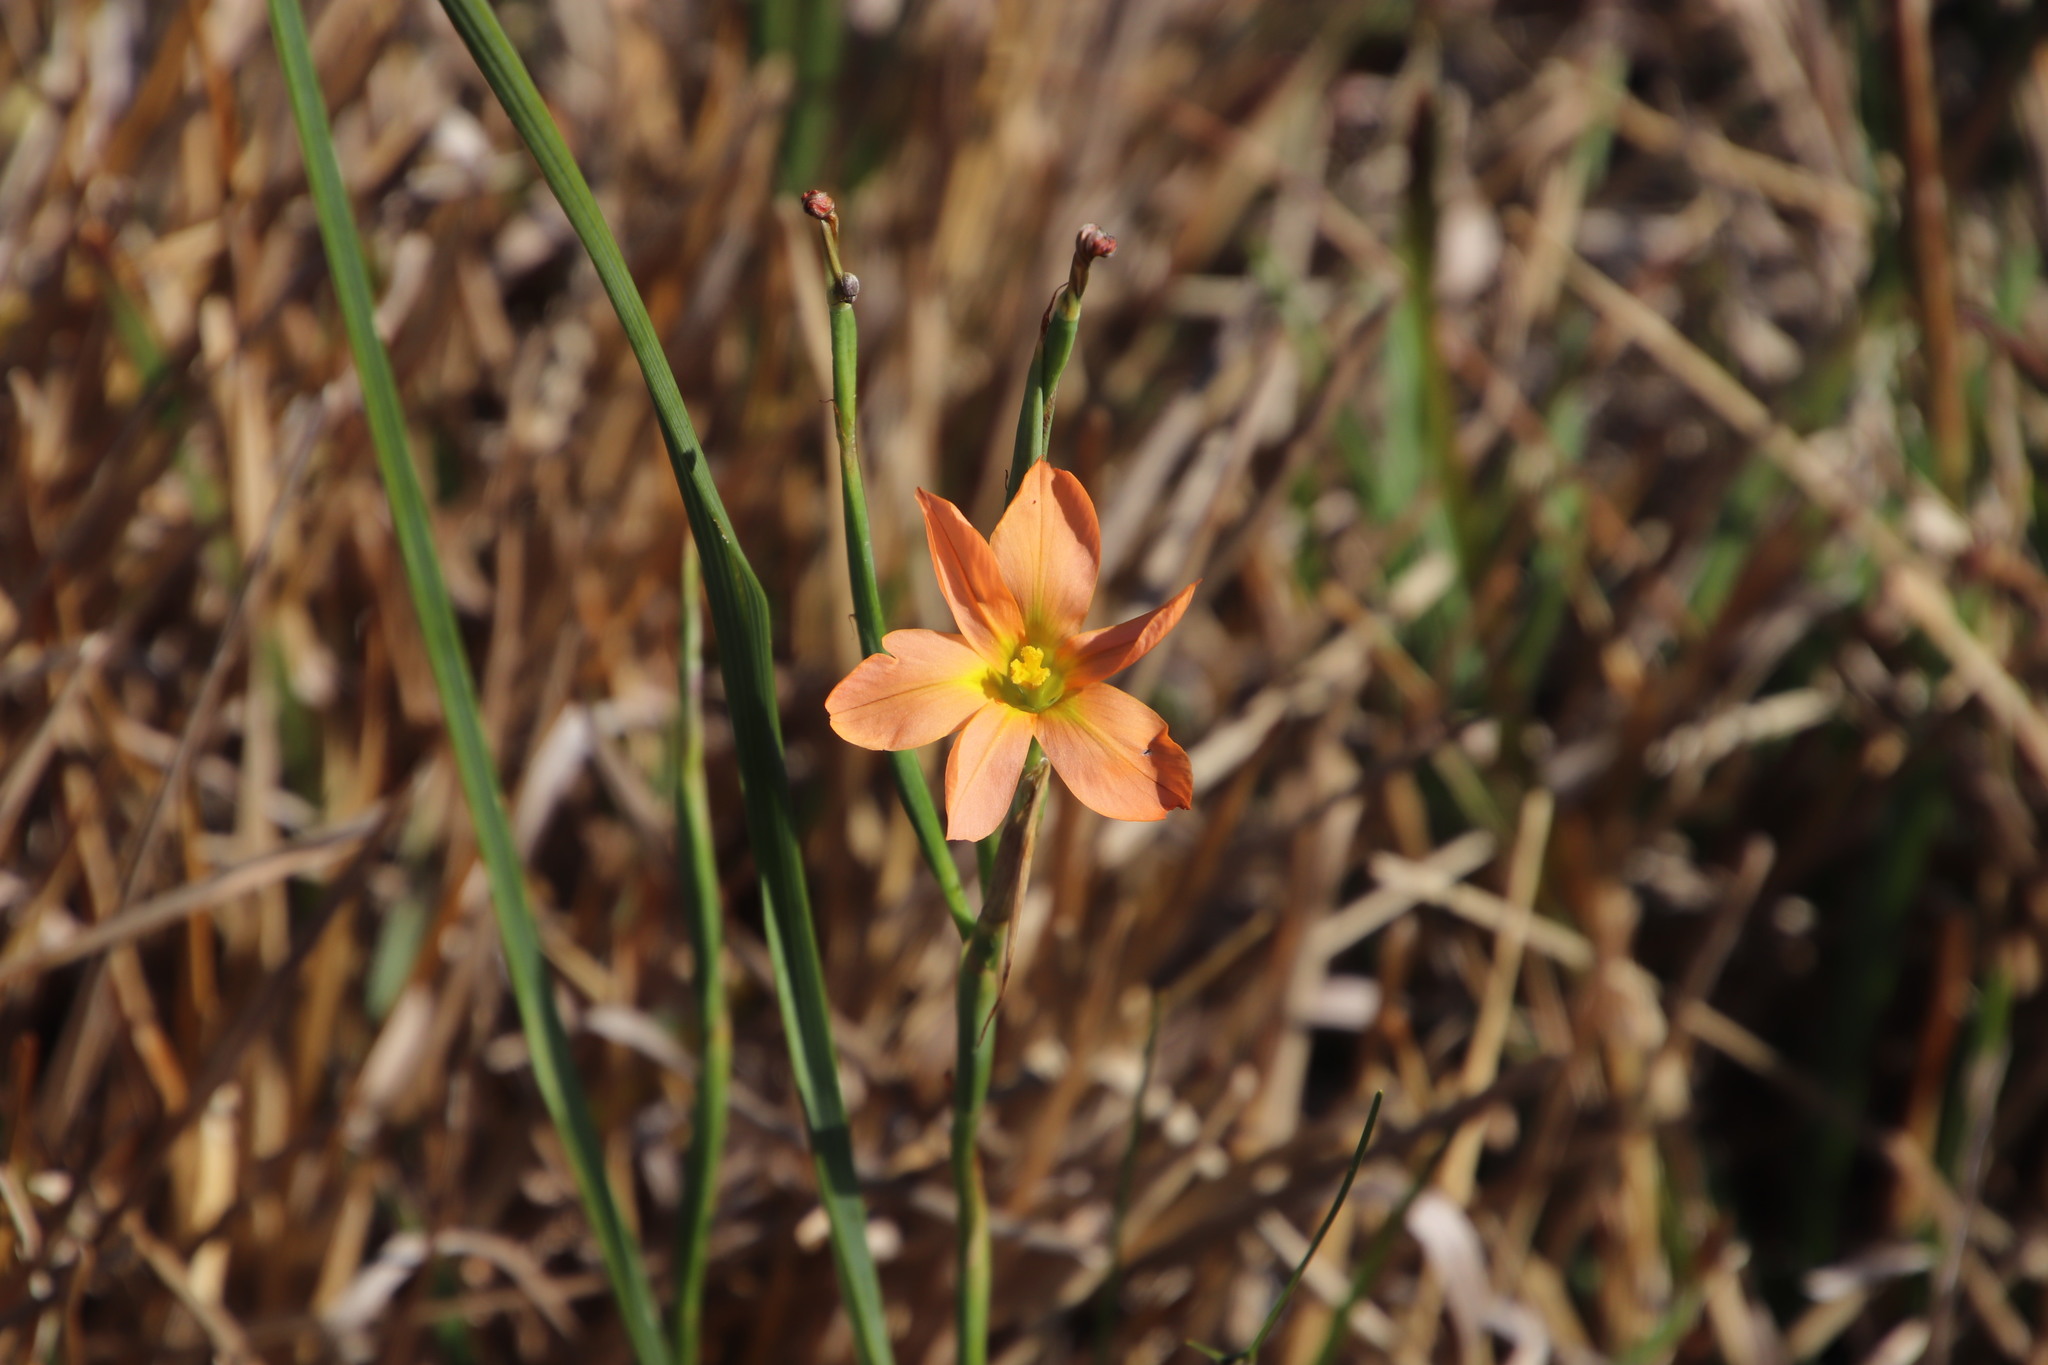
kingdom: Plantae
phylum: Tracheophyta
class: Liliopsida
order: Asparagales
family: Iridaceae
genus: Moraea
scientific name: Moraea flaccida
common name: One-leaf cape-tulip
